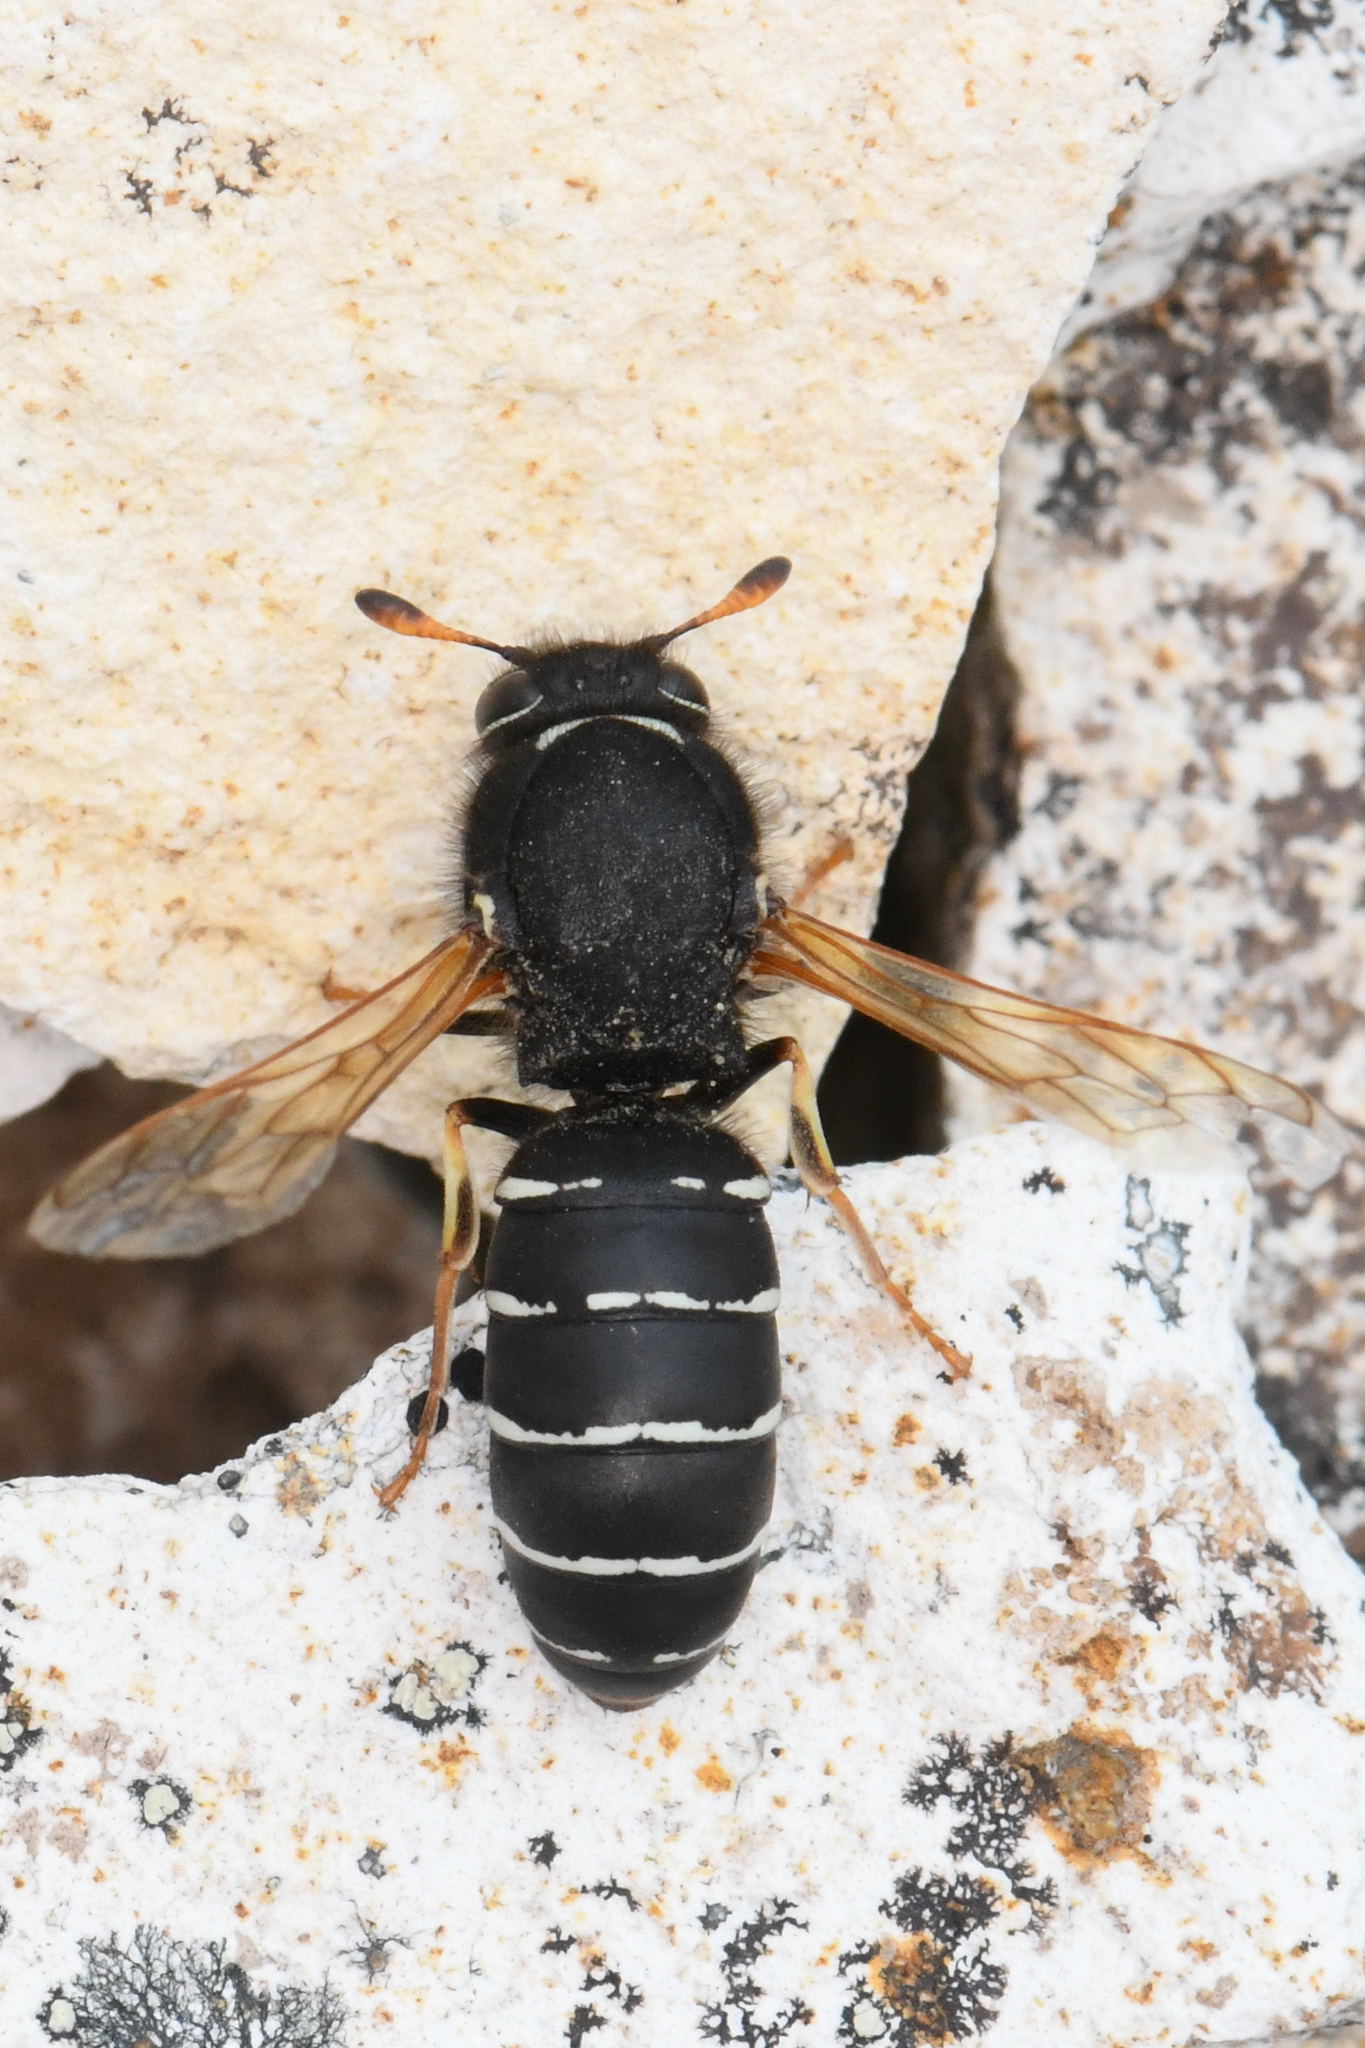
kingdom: Animalia
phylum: Arthropoda
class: Insecta
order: Hymenoptera
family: Masaridae
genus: Pseudomasaris
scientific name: Pseudomasaris marginalis
